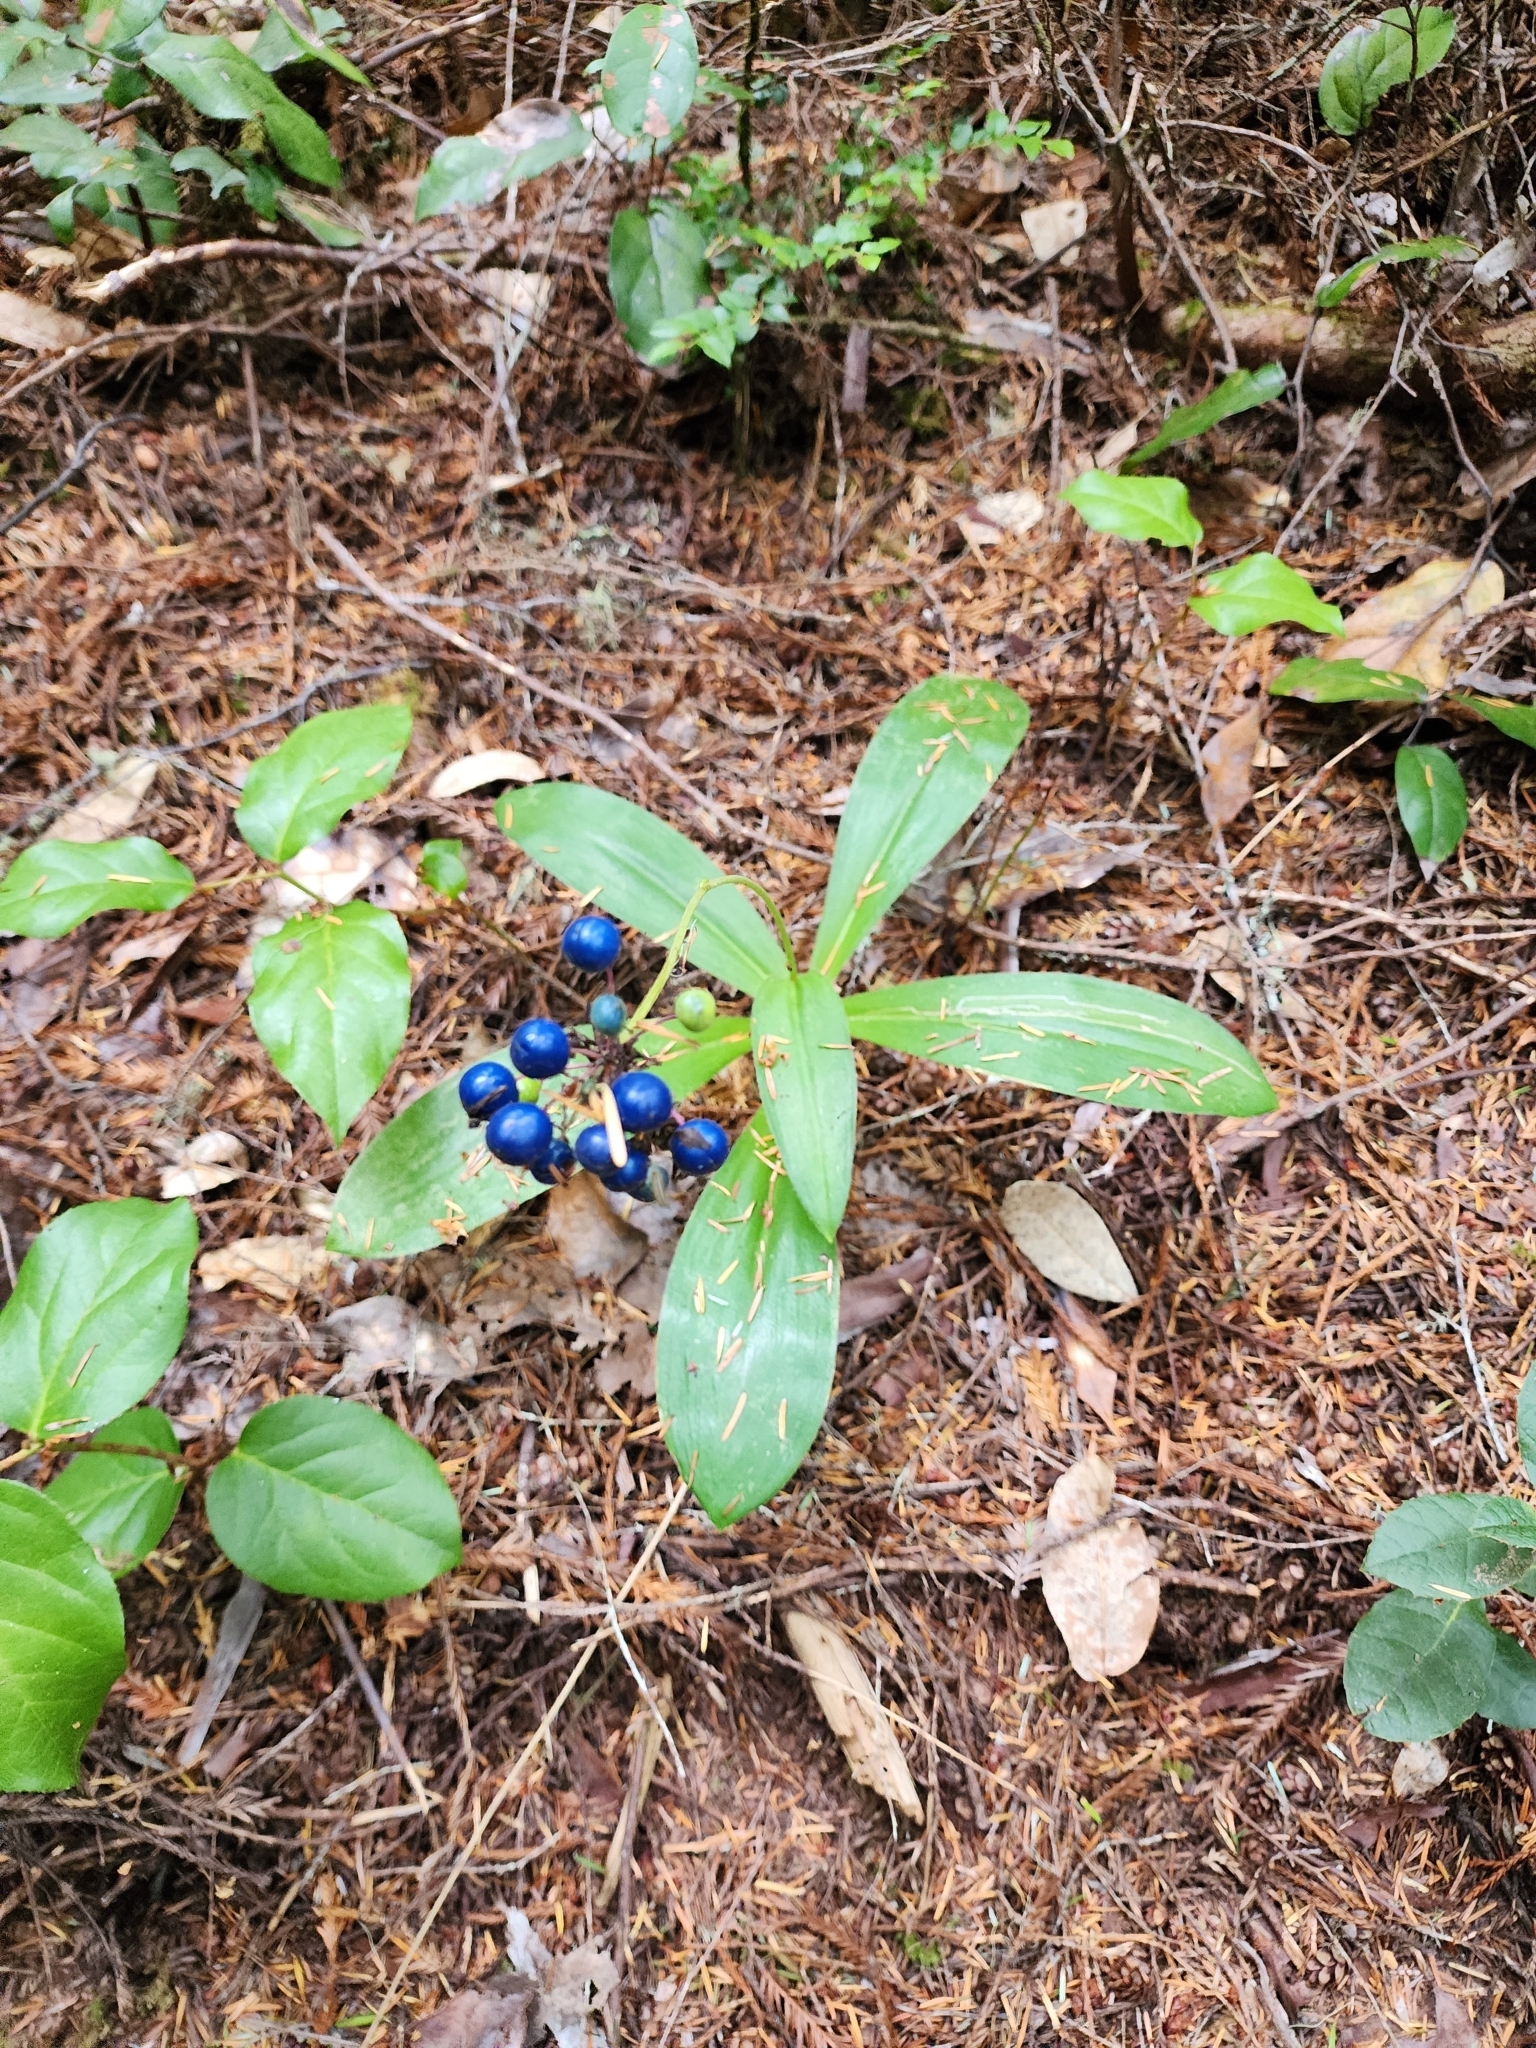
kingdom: Plantae
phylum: Tracheophyta
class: Liliopsida
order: Liliales
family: Liliaceae
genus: Clintonia
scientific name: Clintonia andrewsiana
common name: Red clintonia
